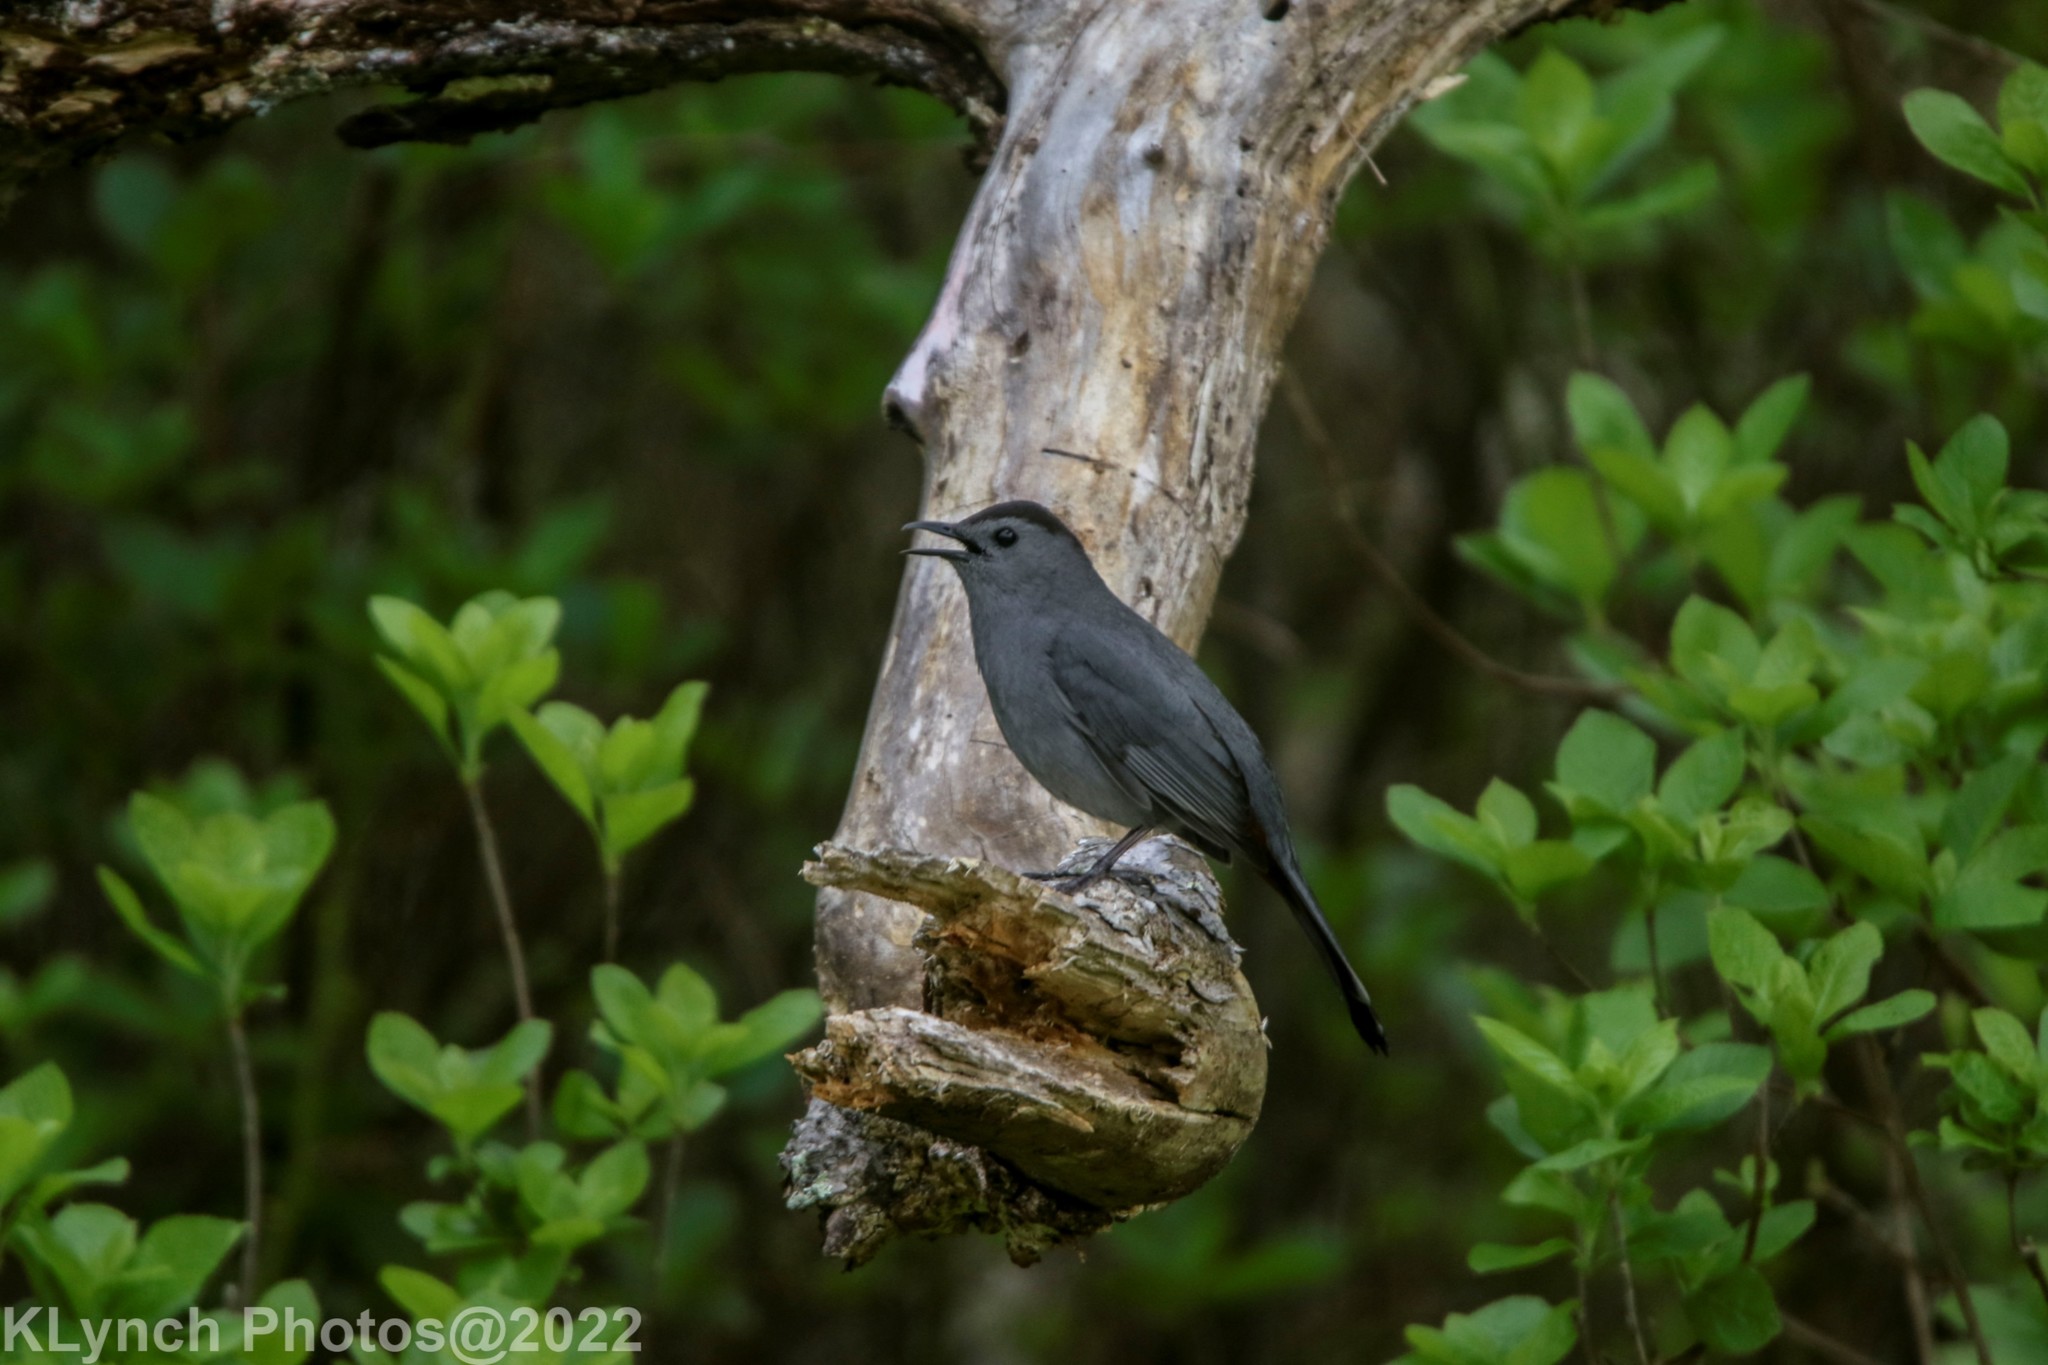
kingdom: Animalia
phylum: Chordata
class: Aves
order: Passeriformes
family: Mimidae
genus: Dumetella
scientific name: Dumetella carolinensis
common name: Gray catbird
